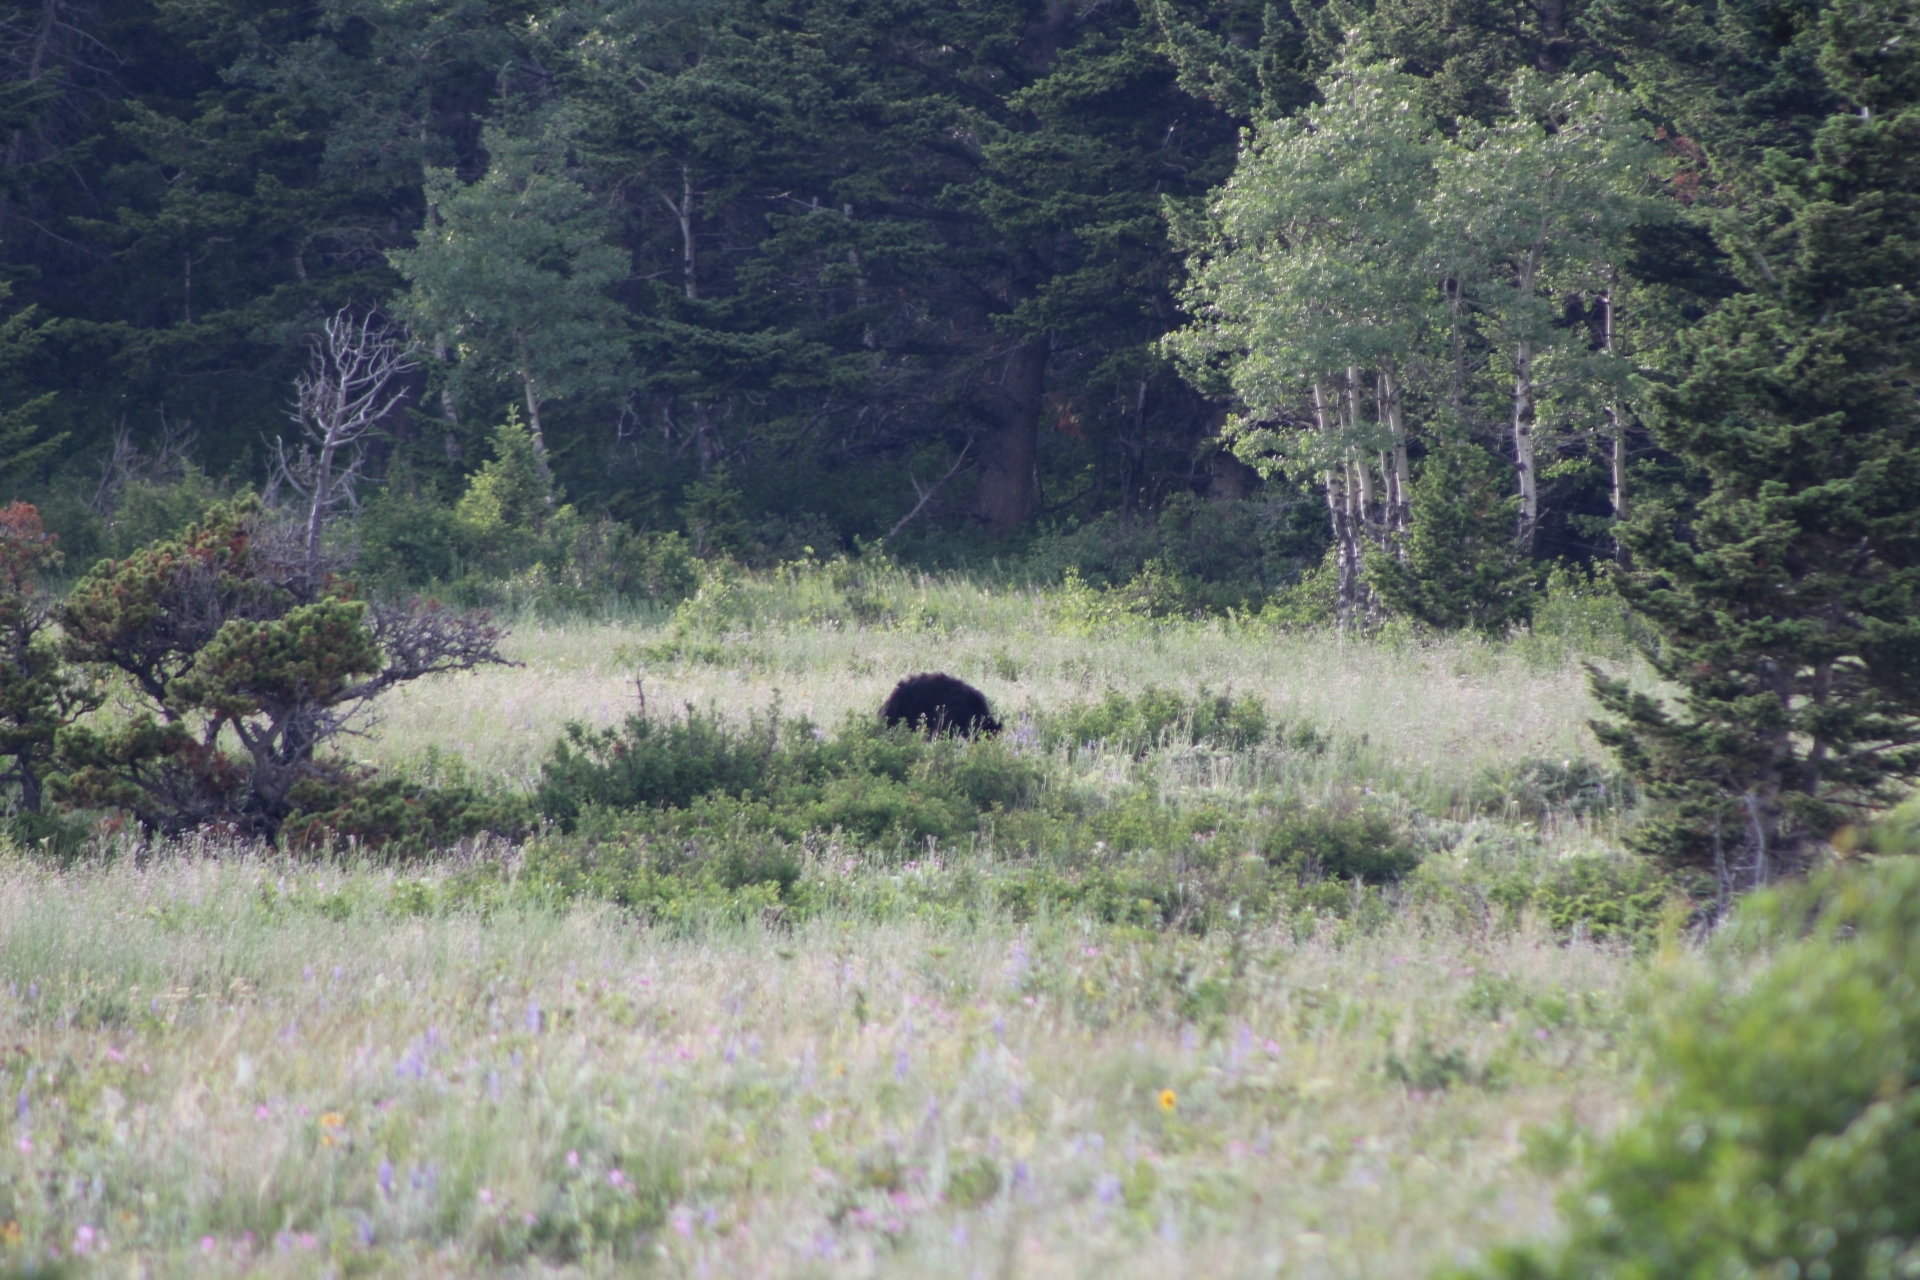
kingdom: Animalia
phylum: Chordata
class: Mammalia
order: Carnivora
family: Ursidae
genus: Ursus
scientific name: Ursus americanus
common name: American black bear
